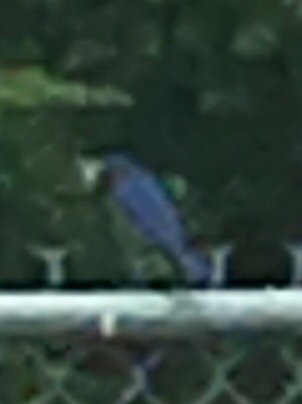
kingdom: Animalia
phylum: Chordata
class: Aves
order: Passeriformes
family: Turdidae
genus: Sialia
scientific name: Sialia sialis
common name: Eastern bluebird
